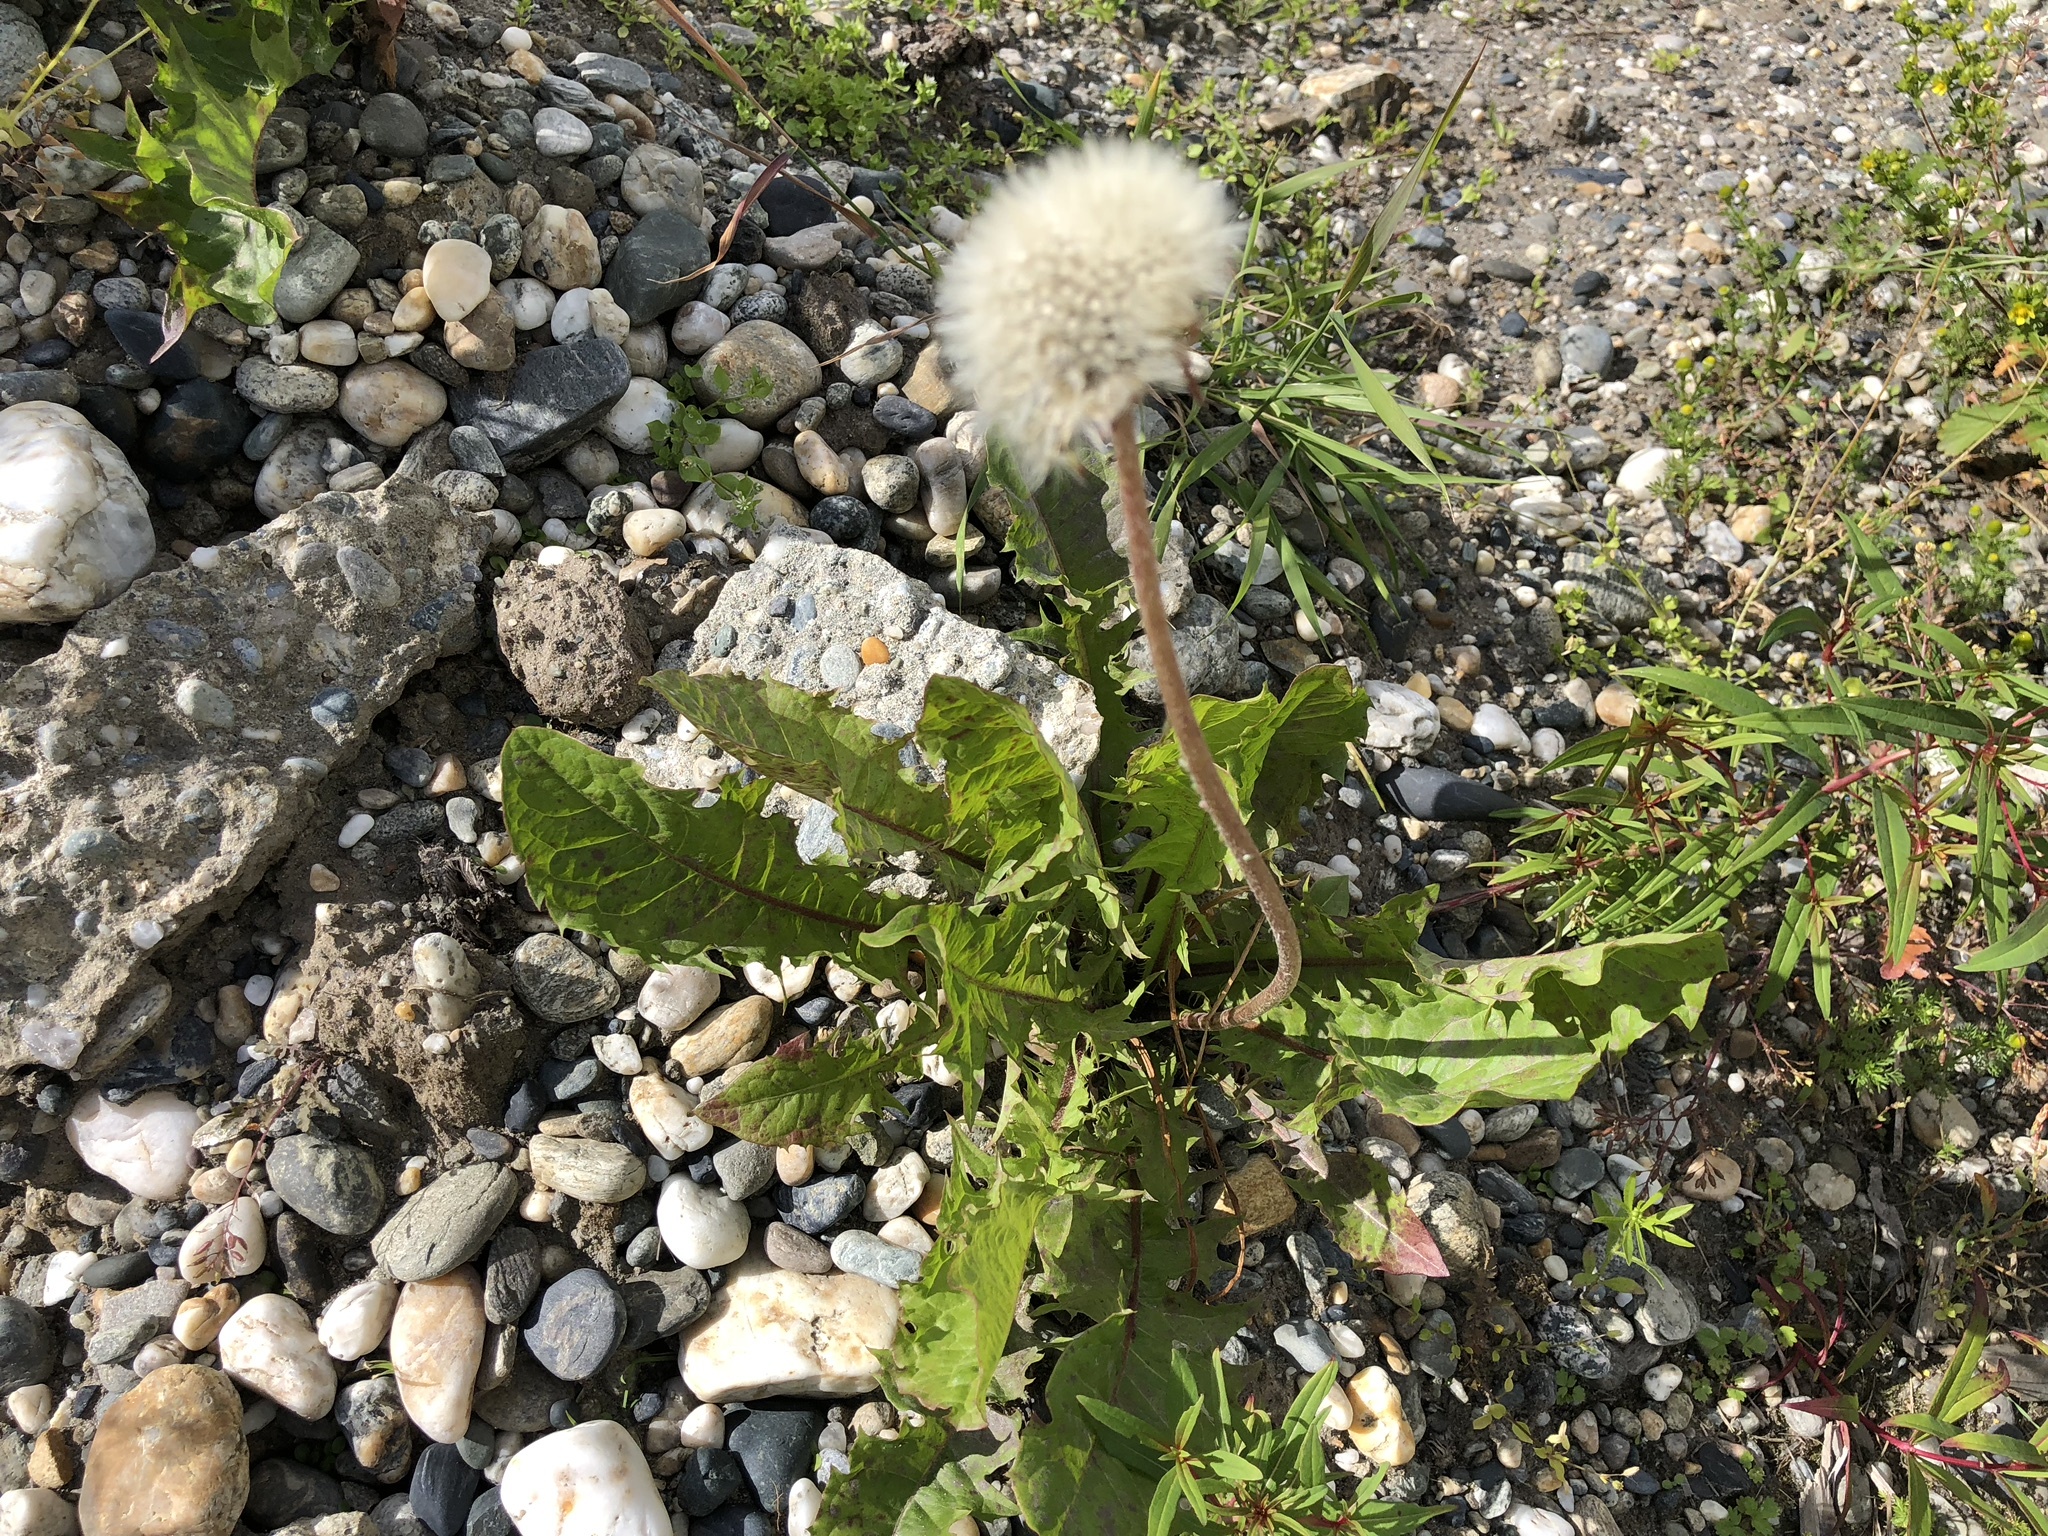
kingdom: Plantae
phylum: Tracheophyta
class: Magnoliopsida
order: Asterales
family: Asteraceae
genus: Taraxacum
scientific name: Taraxacum officinale
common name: Common dandelion
